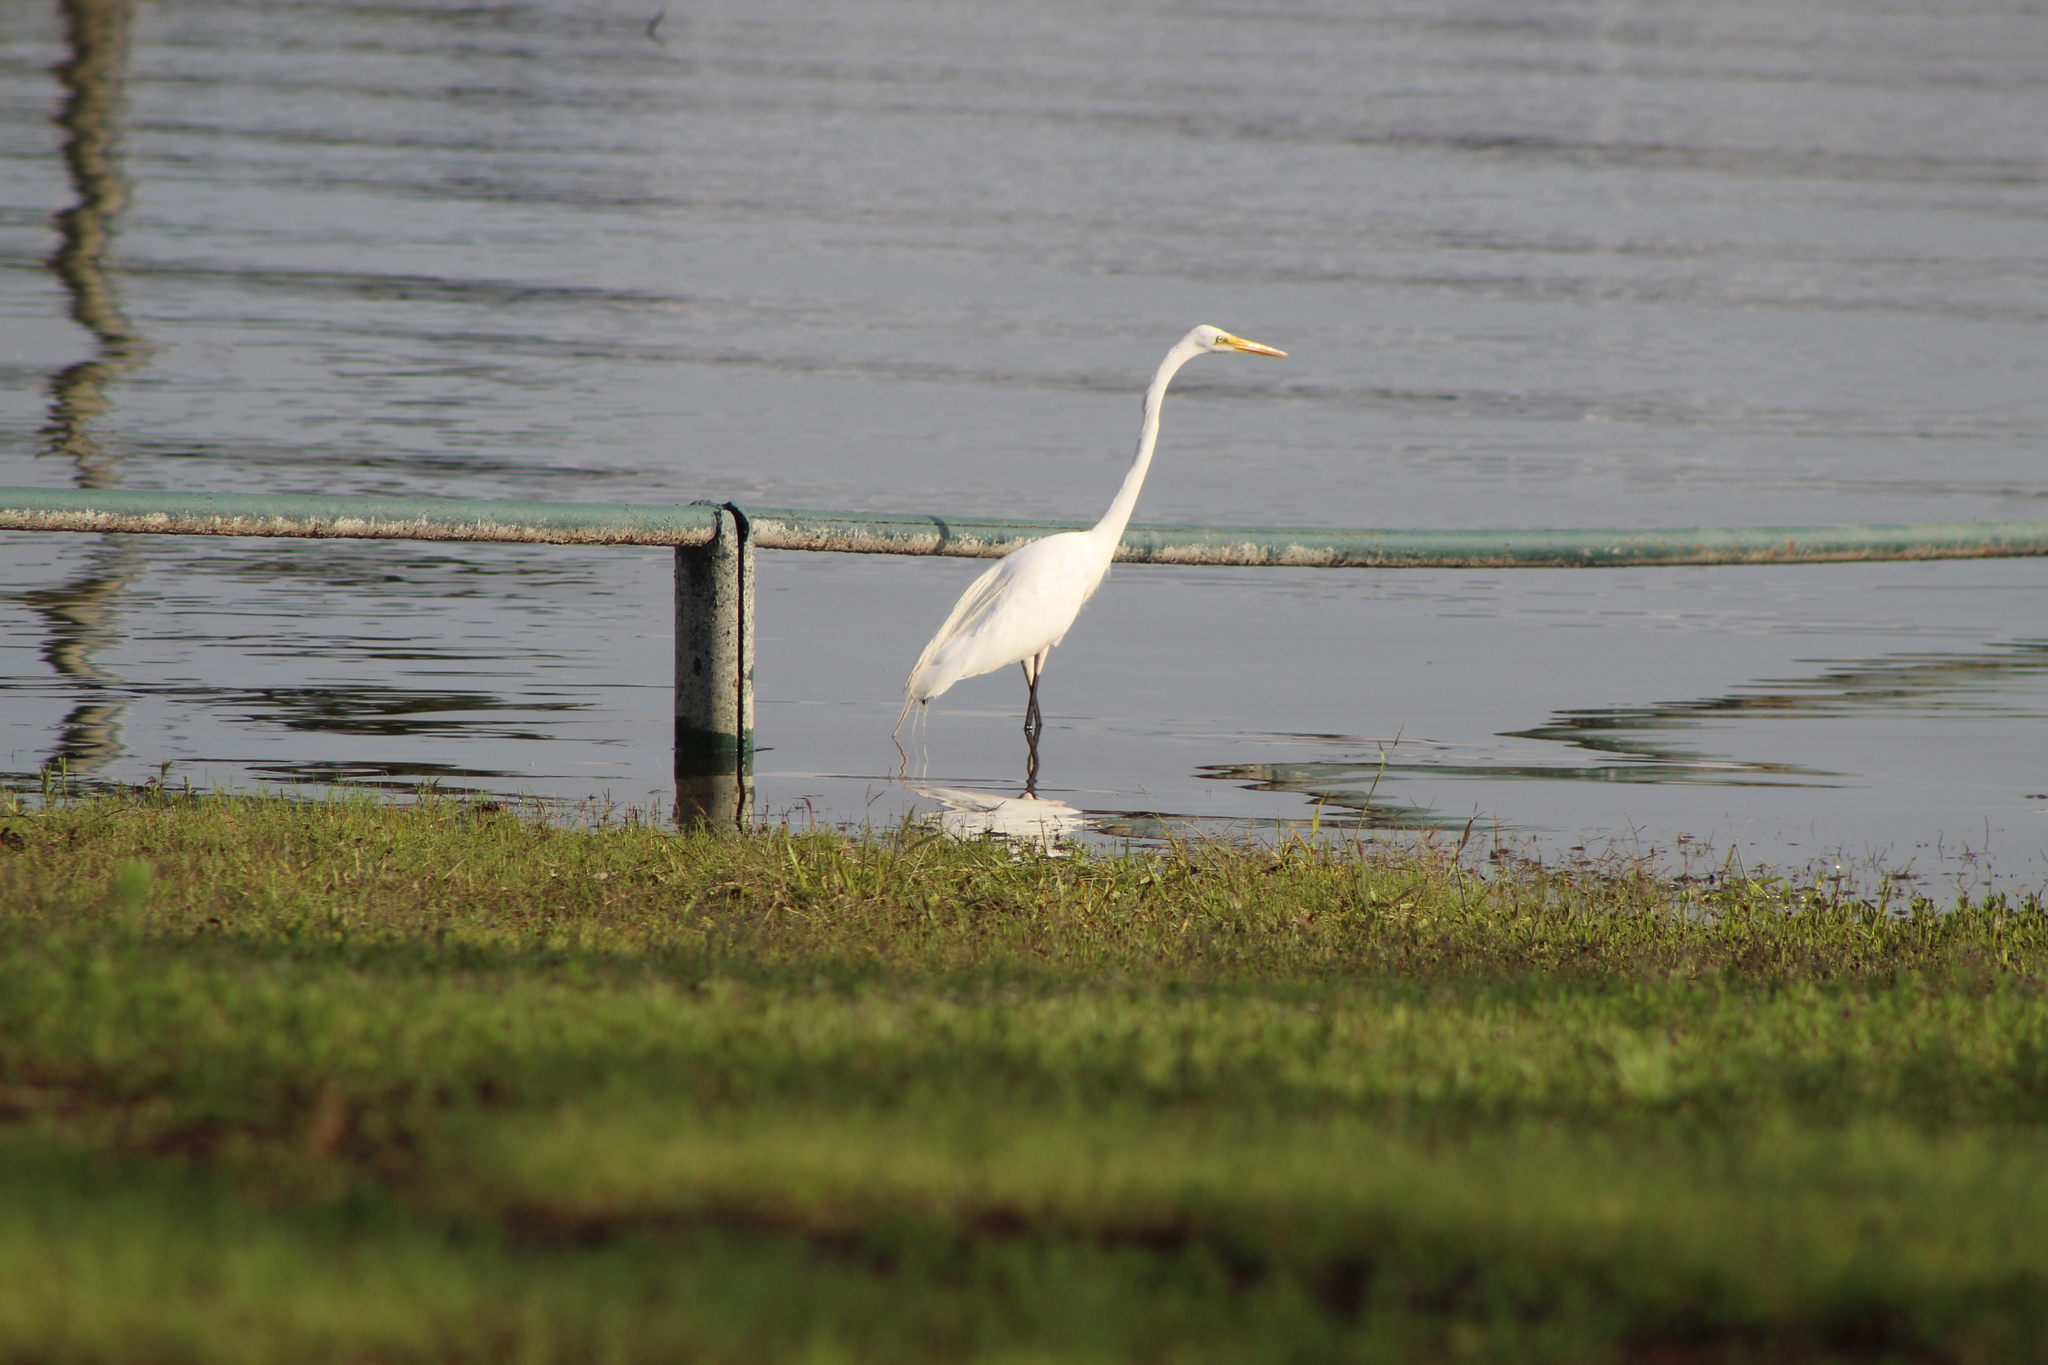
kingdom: Animalia
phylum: Chordata
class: Aves
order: Pelecaniformes
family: Ardeidae
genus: Ardea
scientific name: Ardea alba
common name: Great egret
